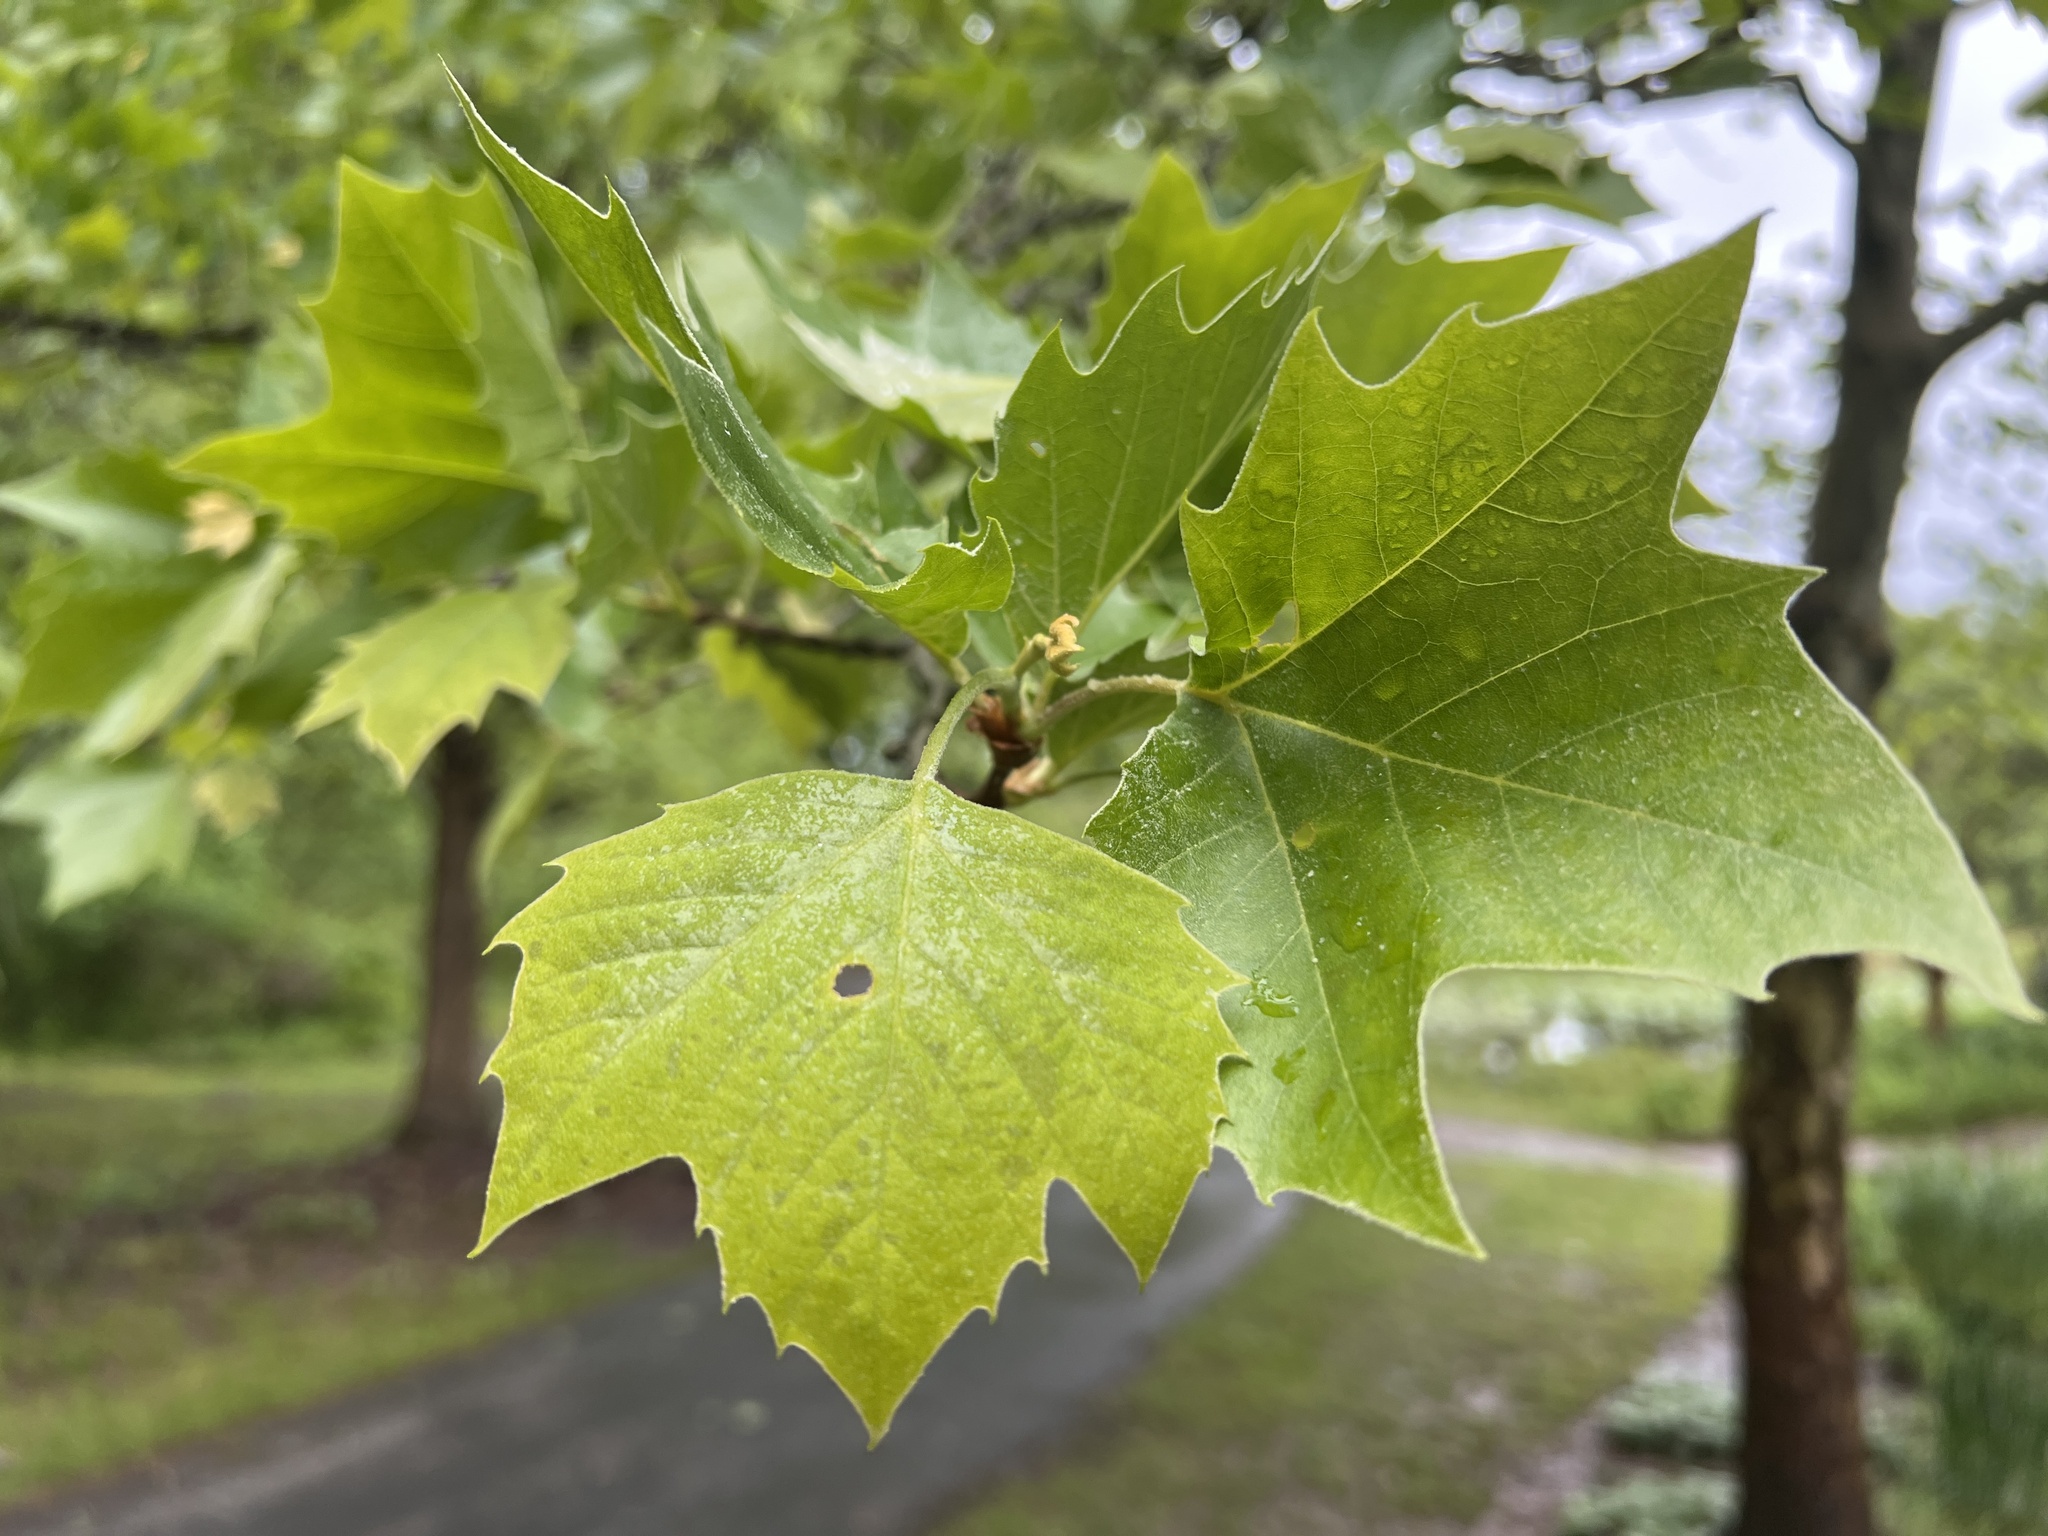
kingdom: Plantae
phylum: Tracheophyta
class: Magnoliopsida
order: Proteales
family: Platanaceae
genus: Platanus
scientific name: Platanus occidentalis
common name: American sycamore
